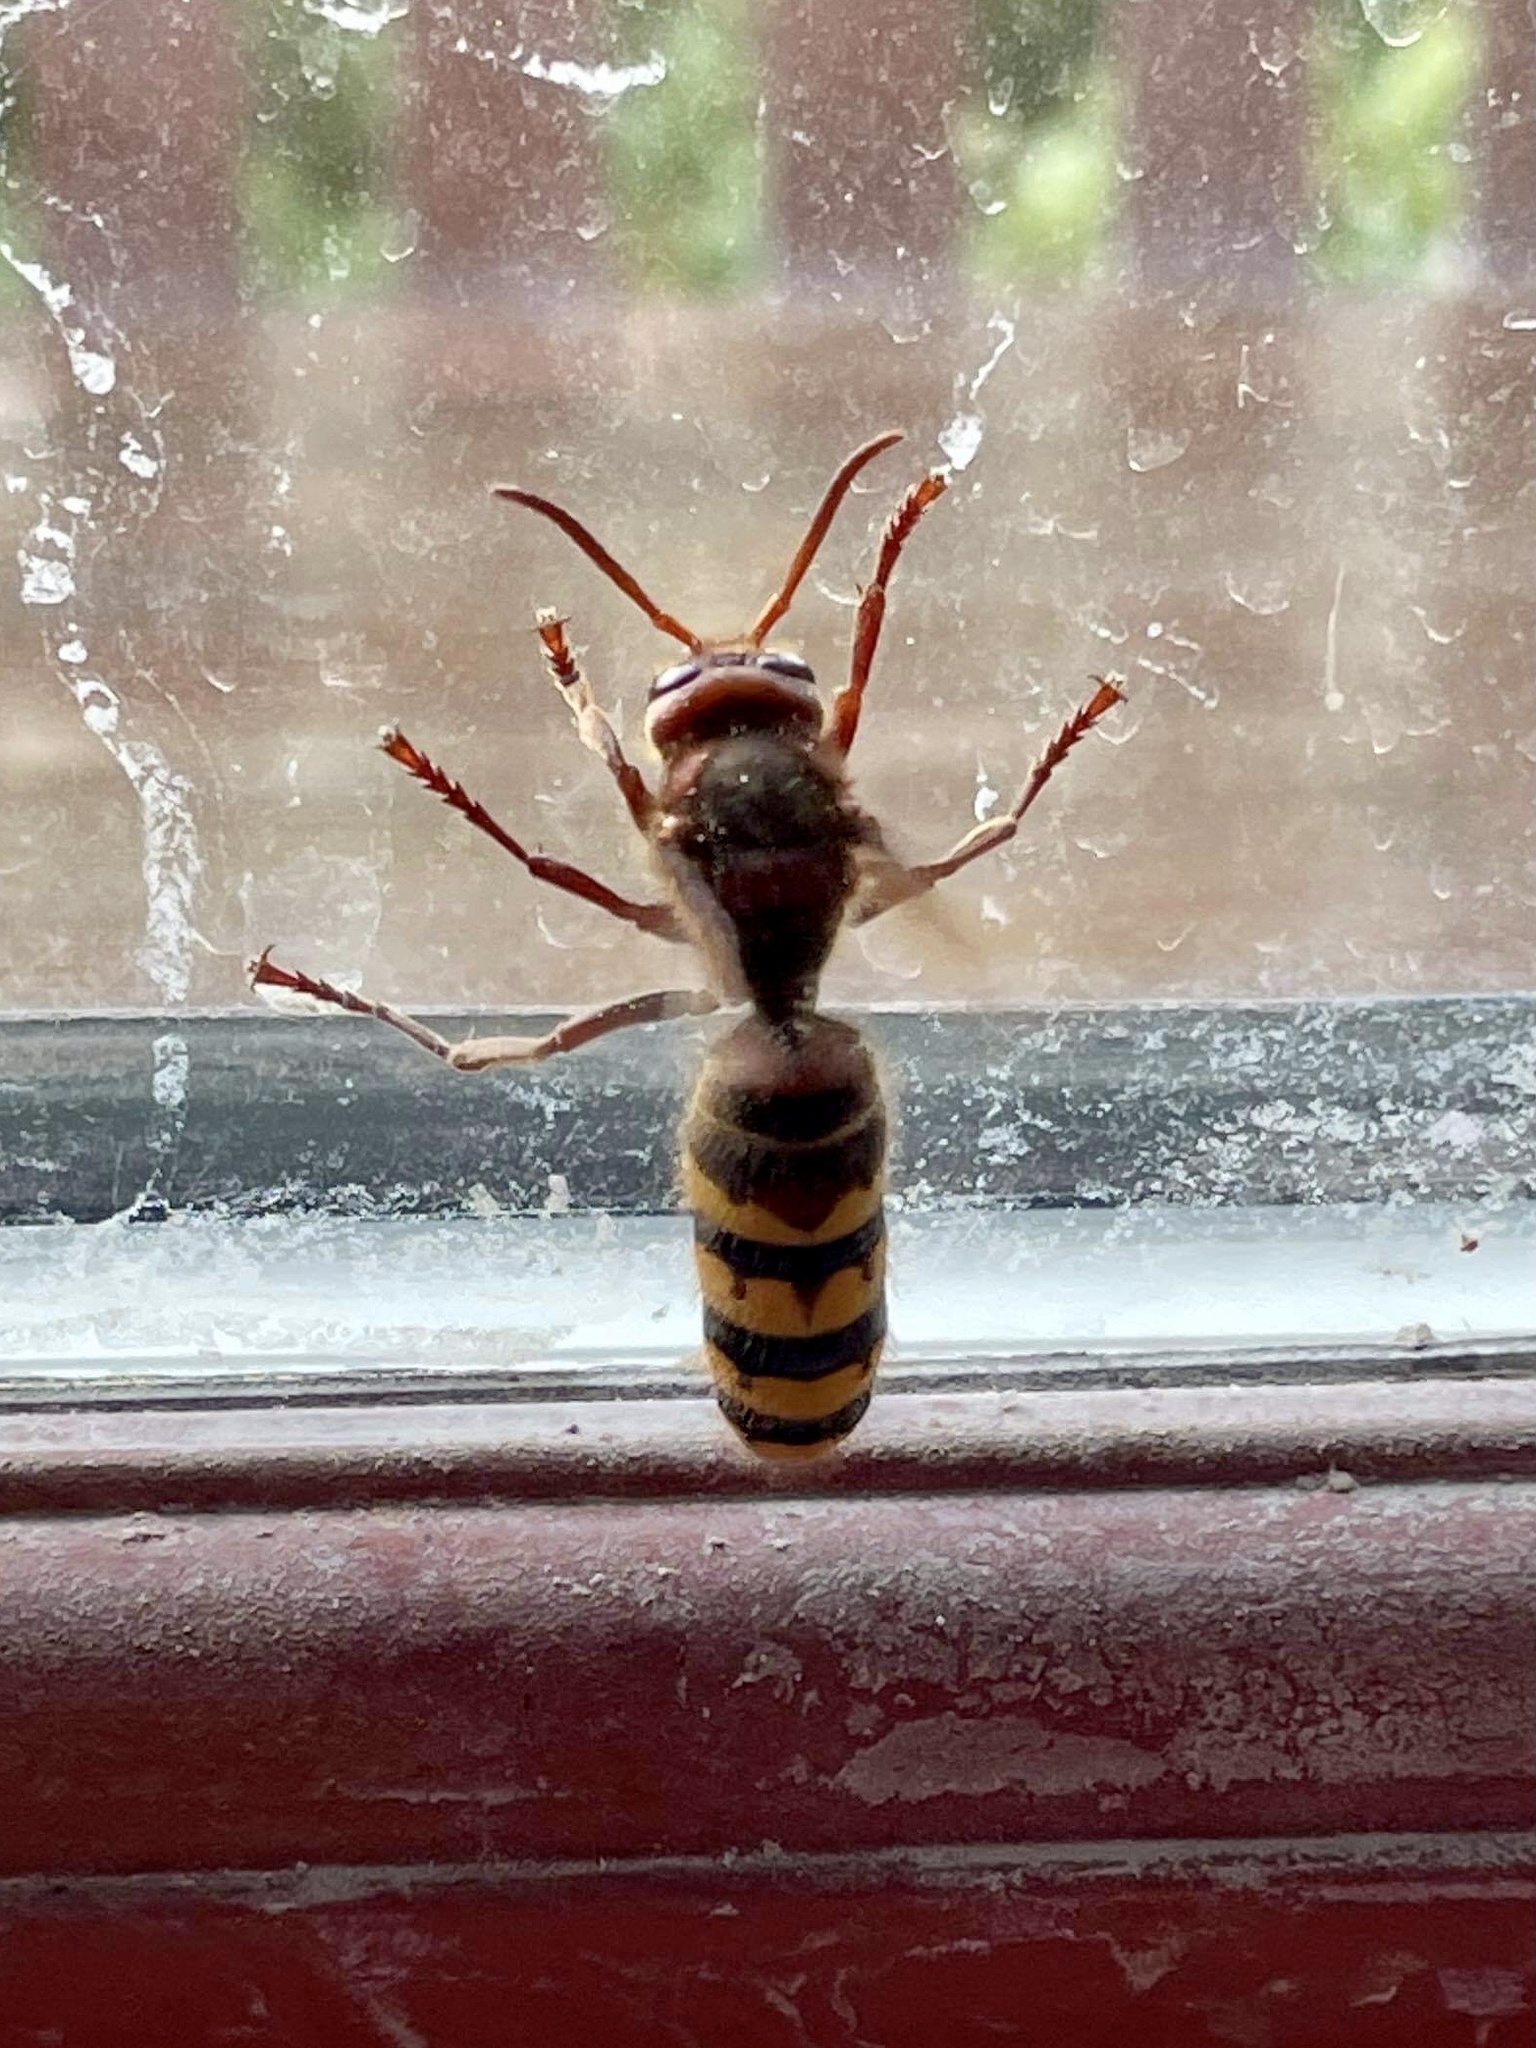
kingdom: Animalia
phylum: Arthropoda
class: Insecta
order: Hymenoptera
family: Vespidae
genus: Vespa
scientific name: Vespa crabro
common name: Hornet
